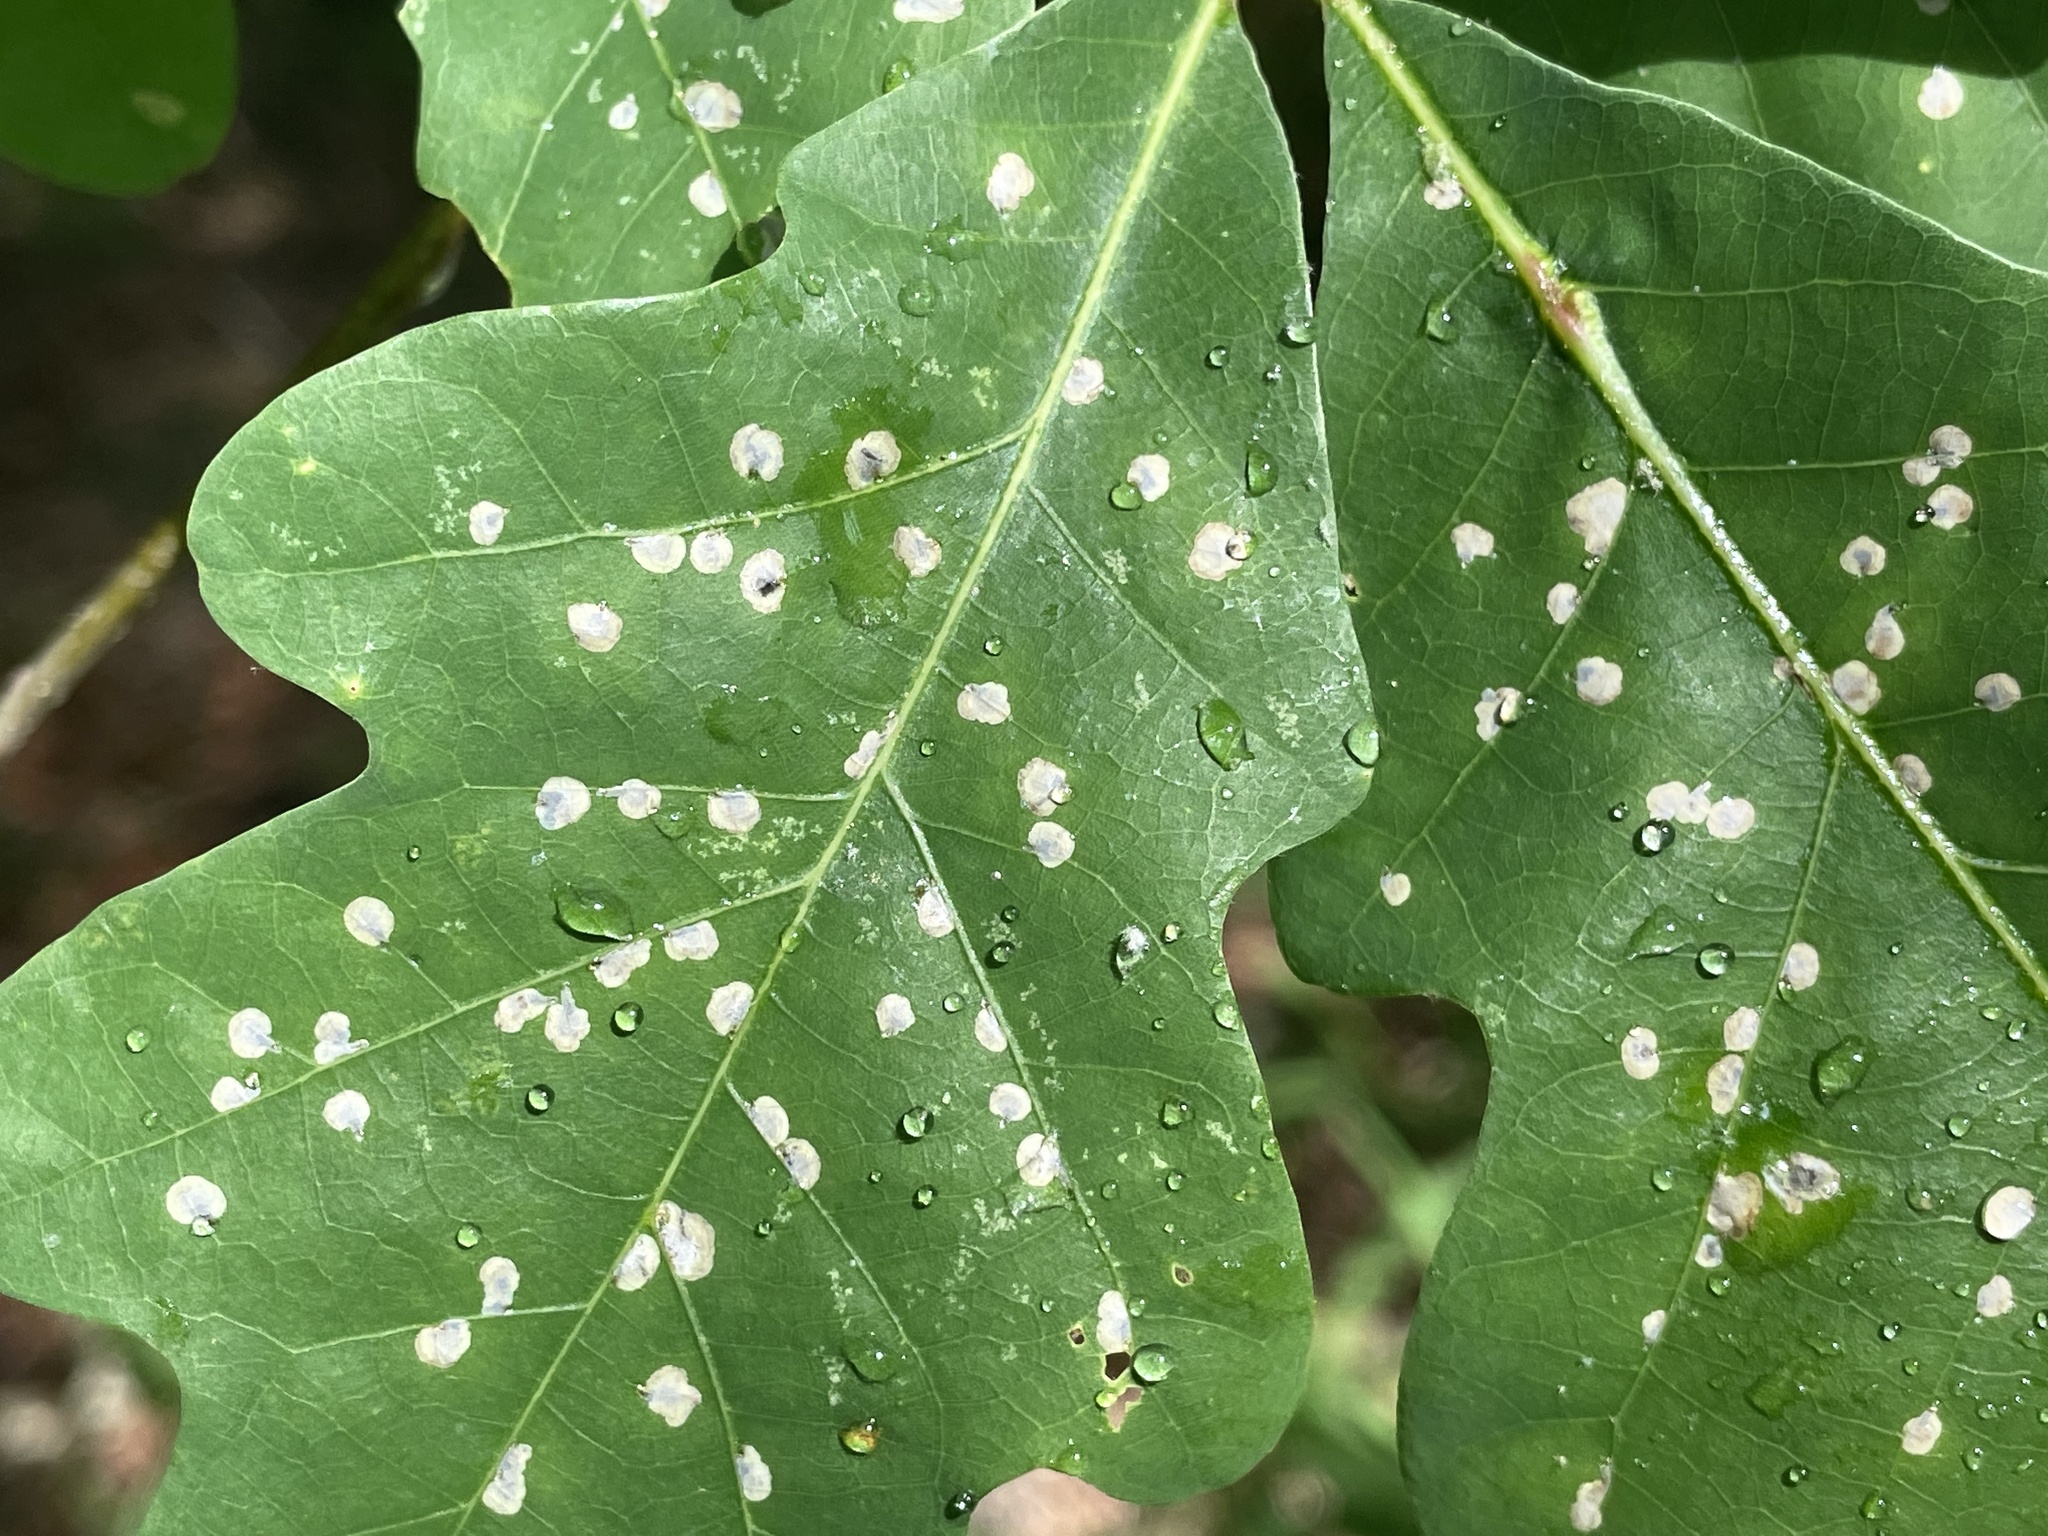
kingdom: Animalia
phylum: Arthropoda
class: Insecta
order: Lepidoptera
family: Gracillariidae
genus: Cameraria
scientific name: Cameraria
